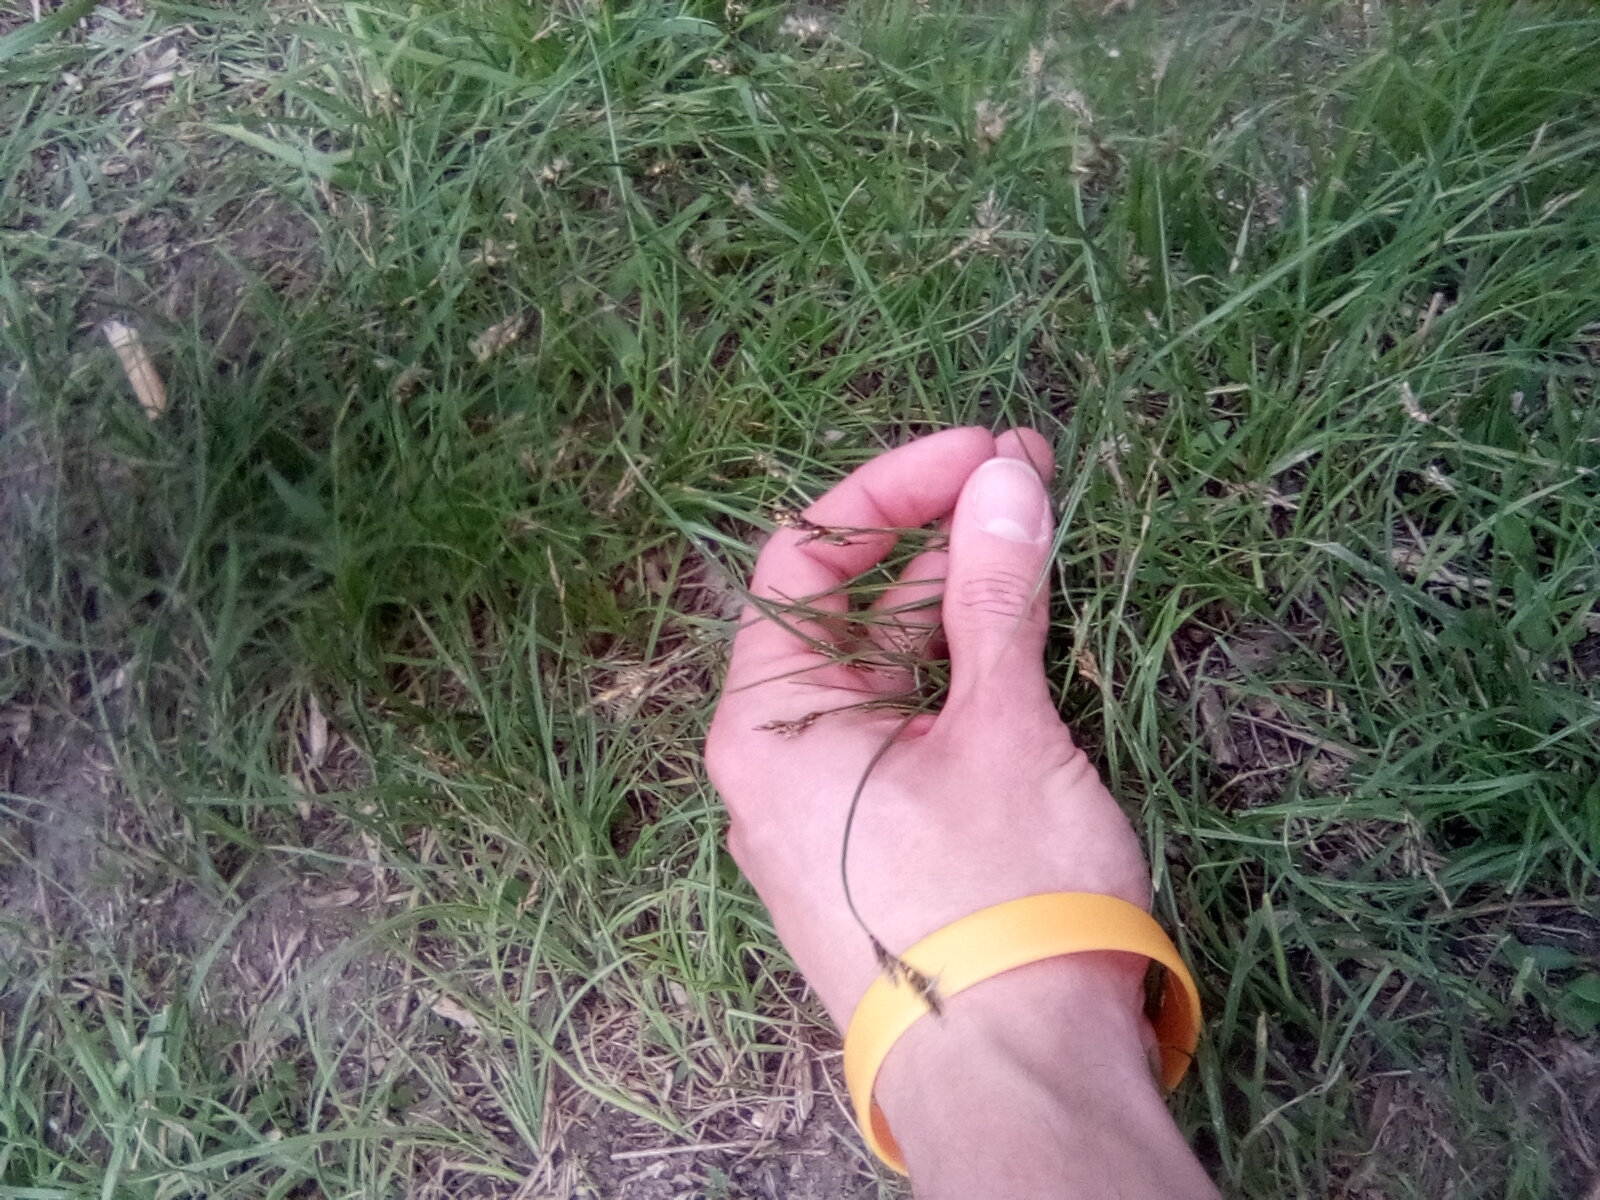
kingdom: Plantae
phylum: Tracheophyta
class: Liliopsida
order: Poales
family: Cyperaceae
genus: Carex
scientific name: Carex praecox
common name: Early sedge
